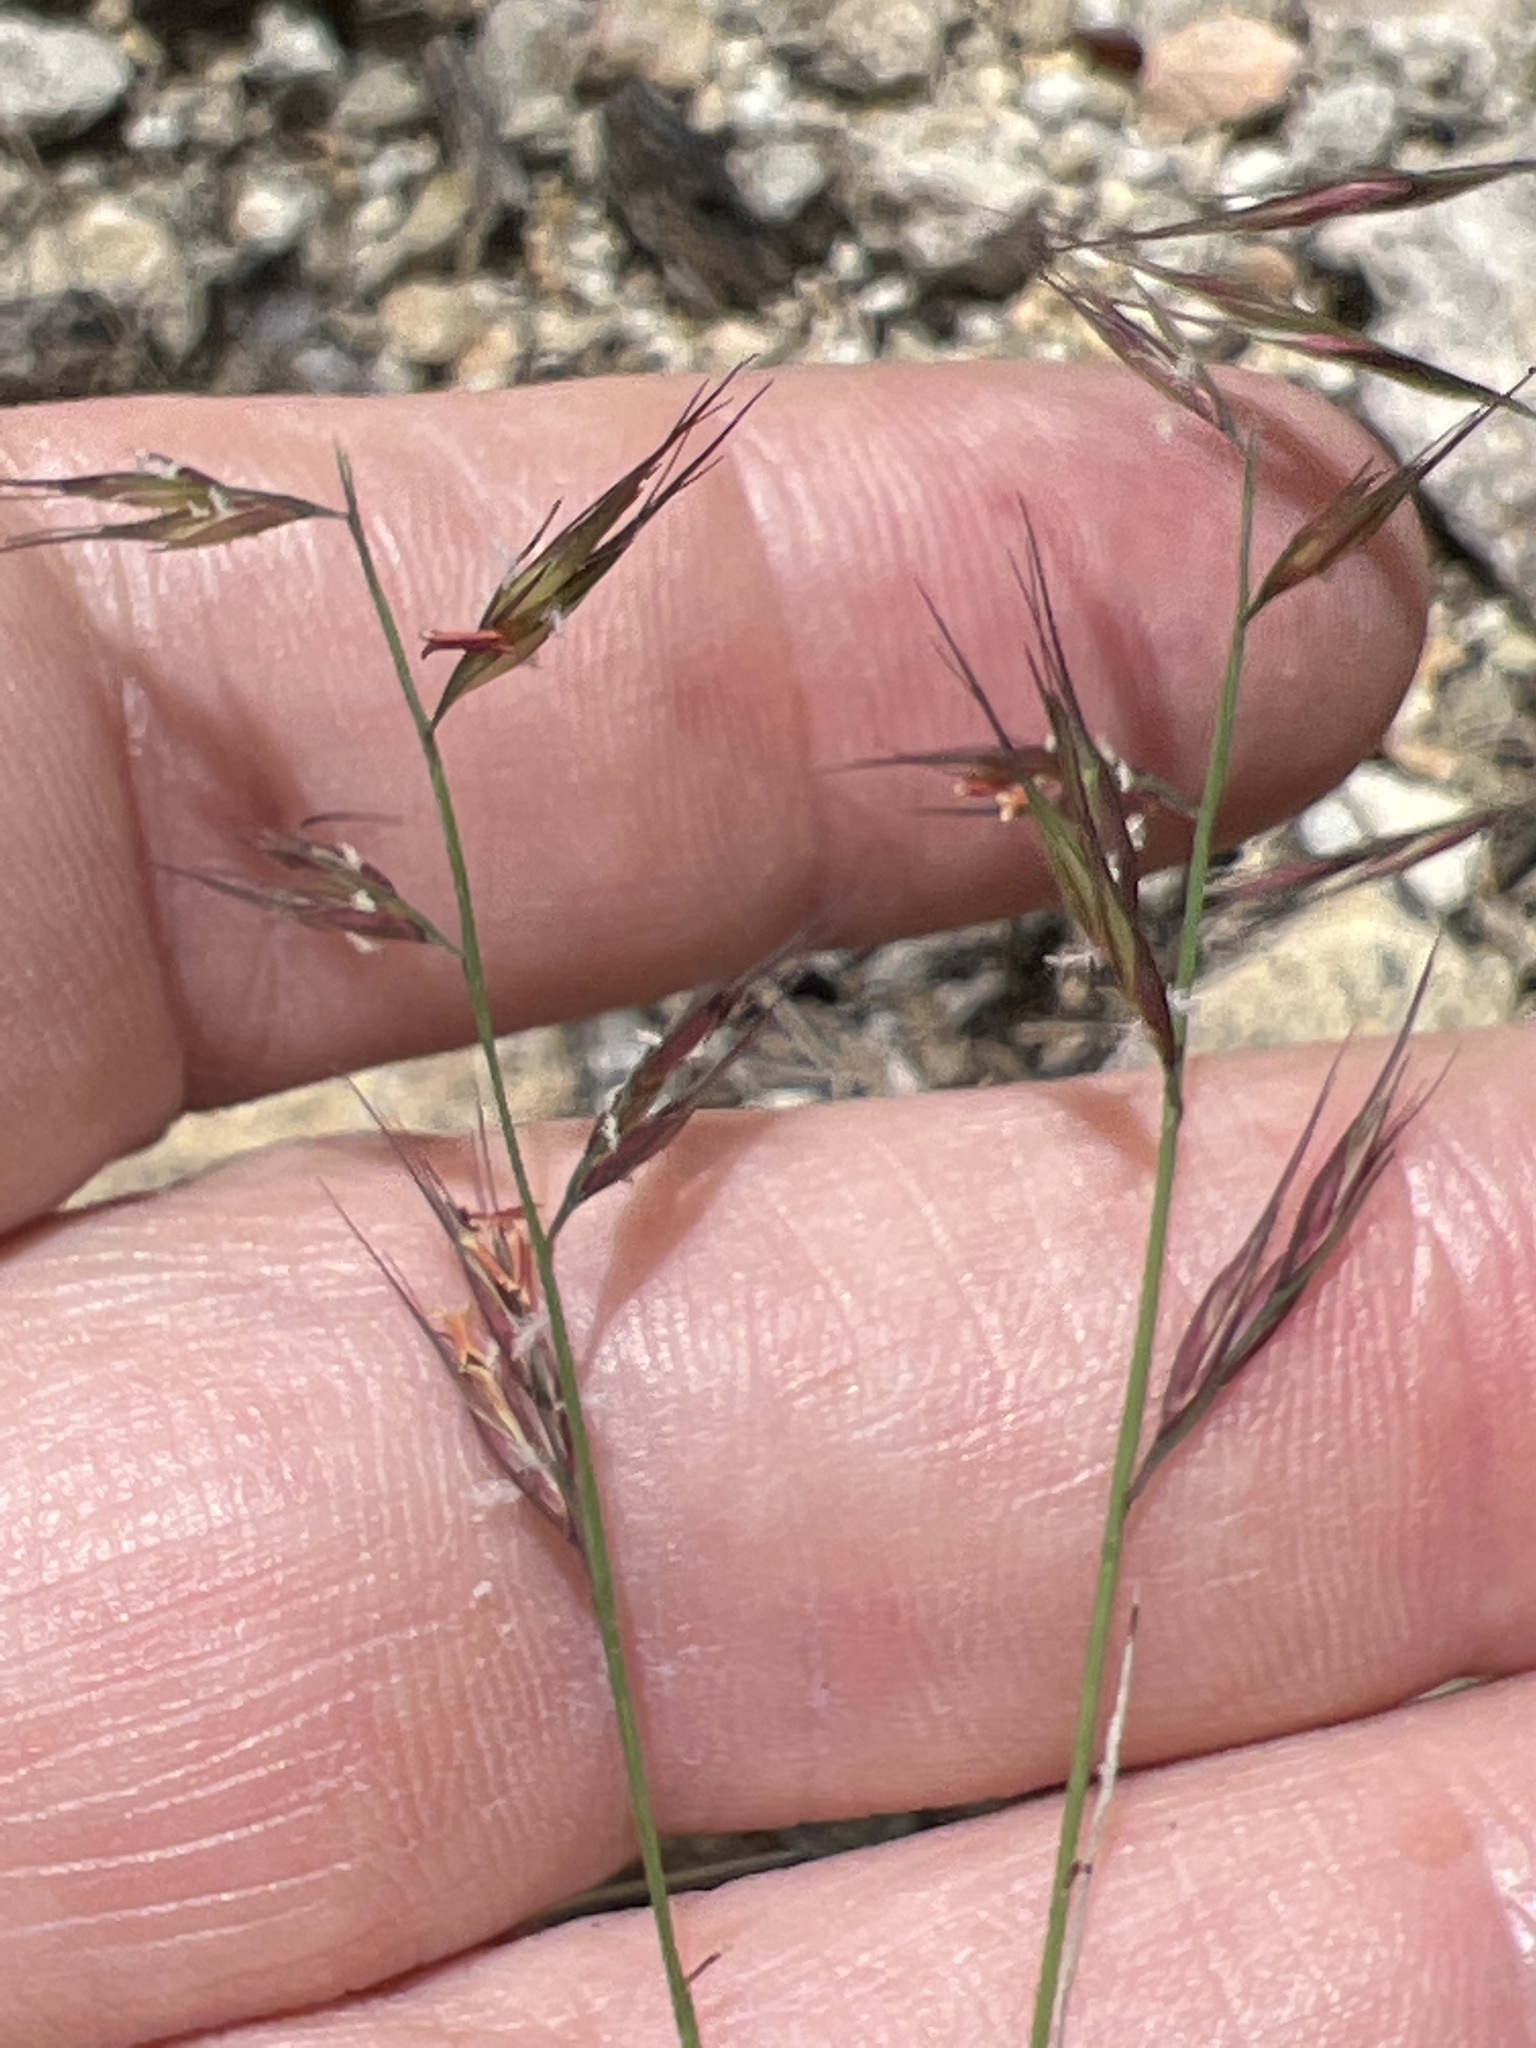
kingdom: Plantae
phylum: Tracheophyta
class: Liliopsida
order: Poales
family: Poaceae
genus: Bouteloua
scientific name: Bouteloua repens
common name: Slender grama
